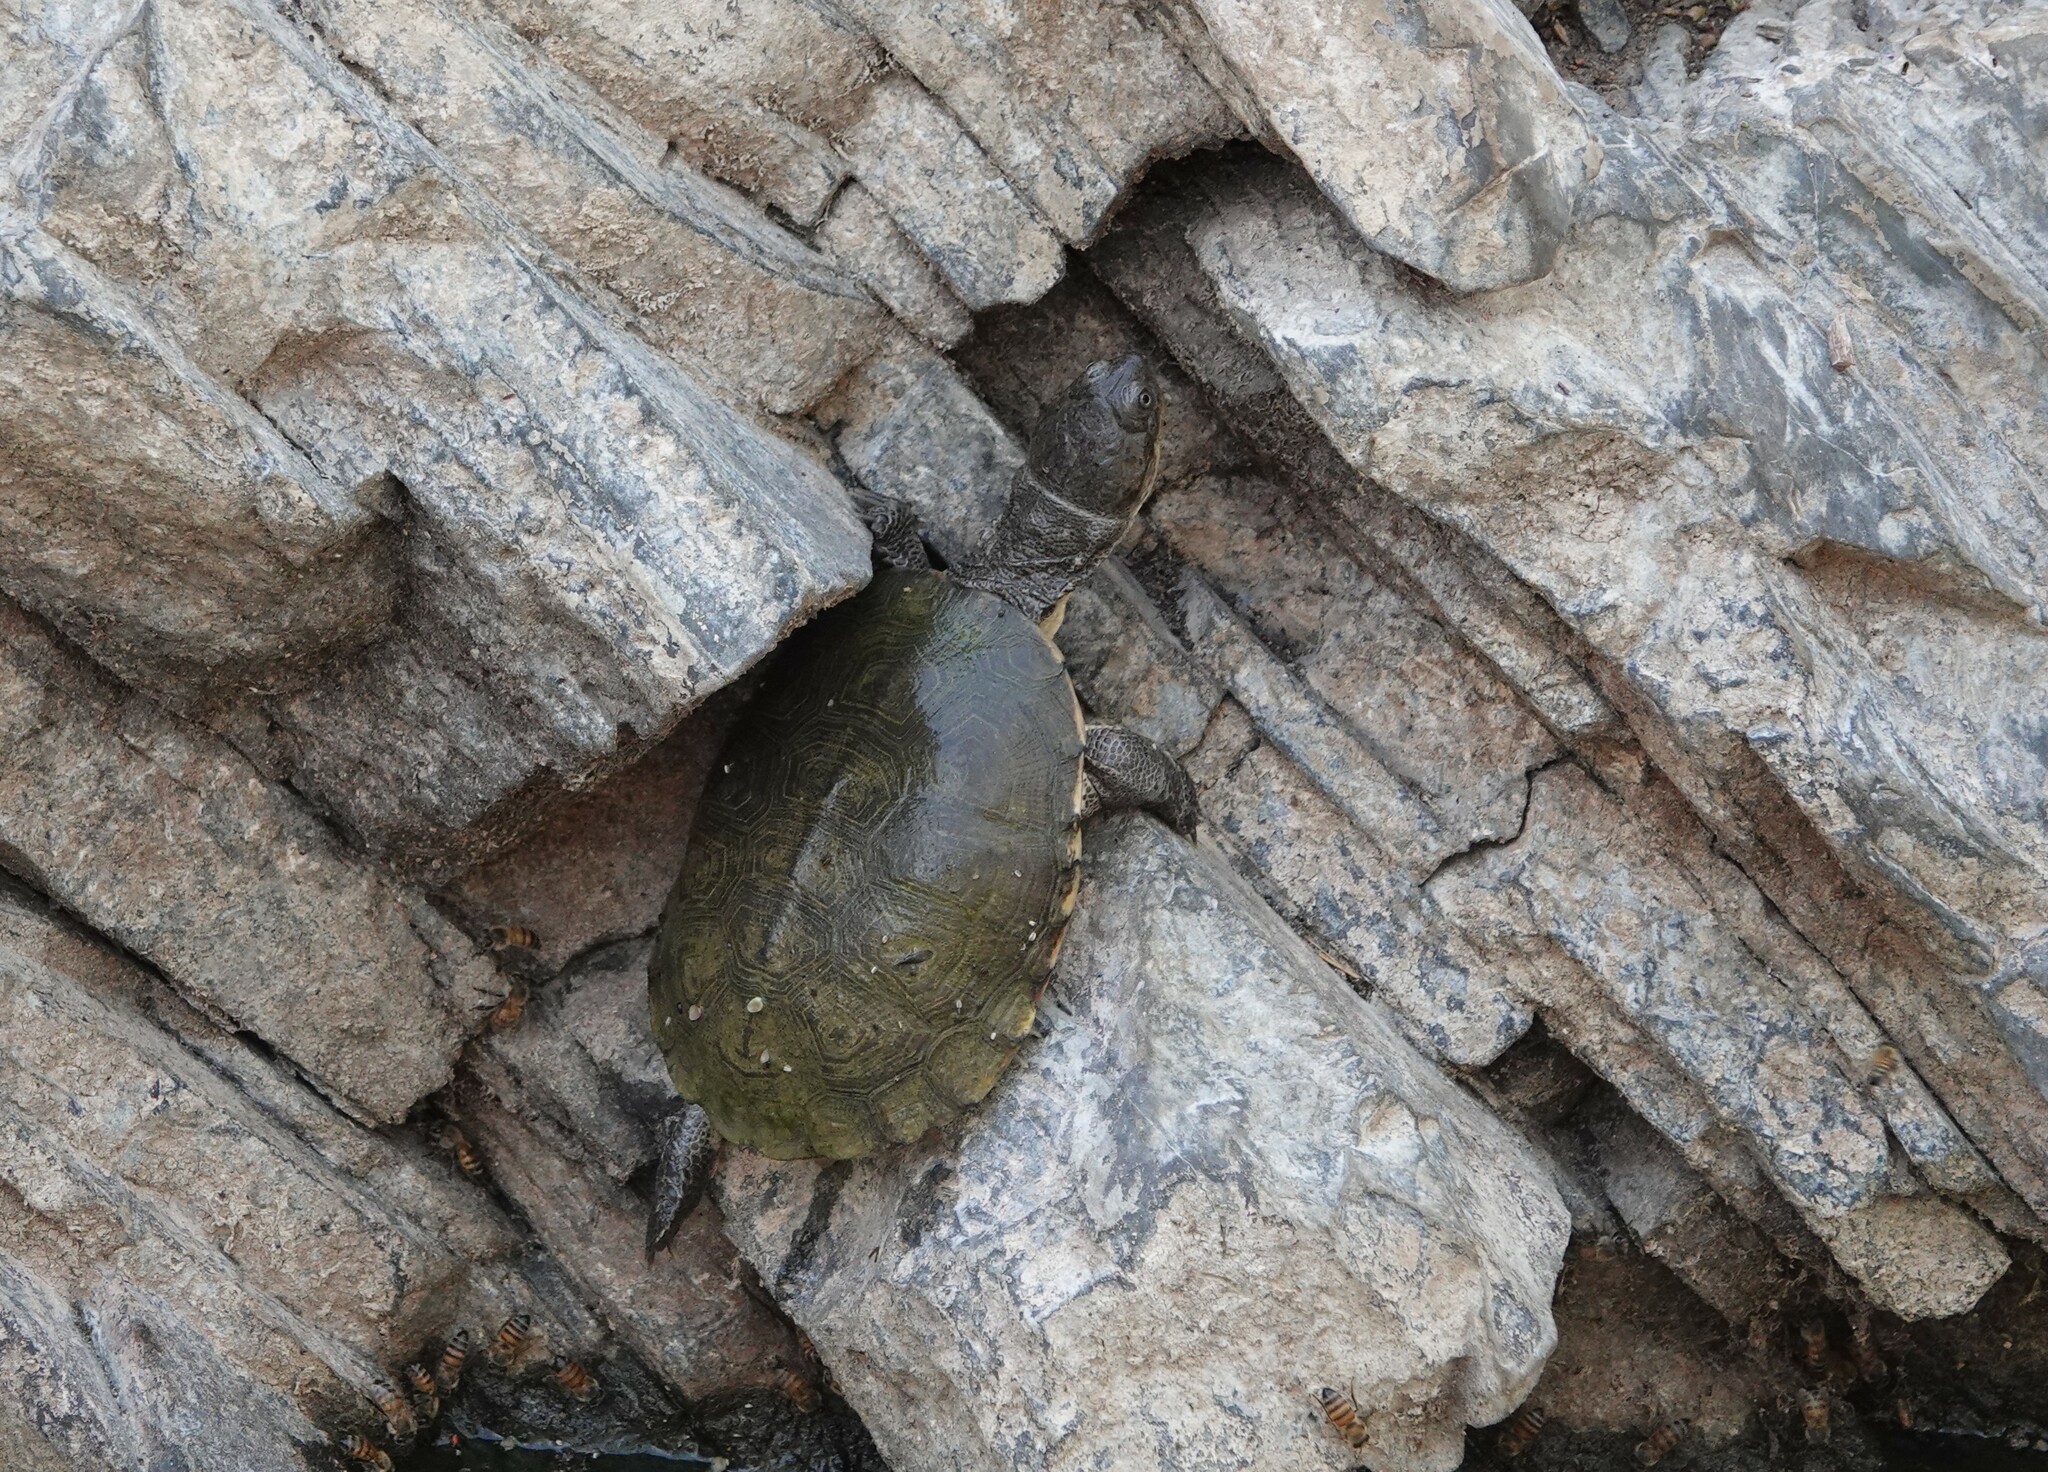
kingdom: Animalia
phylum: Chordata
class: Testudines
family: Pelomedusidae
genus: Pelomedusa
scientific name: Pelomedusa subrufa
